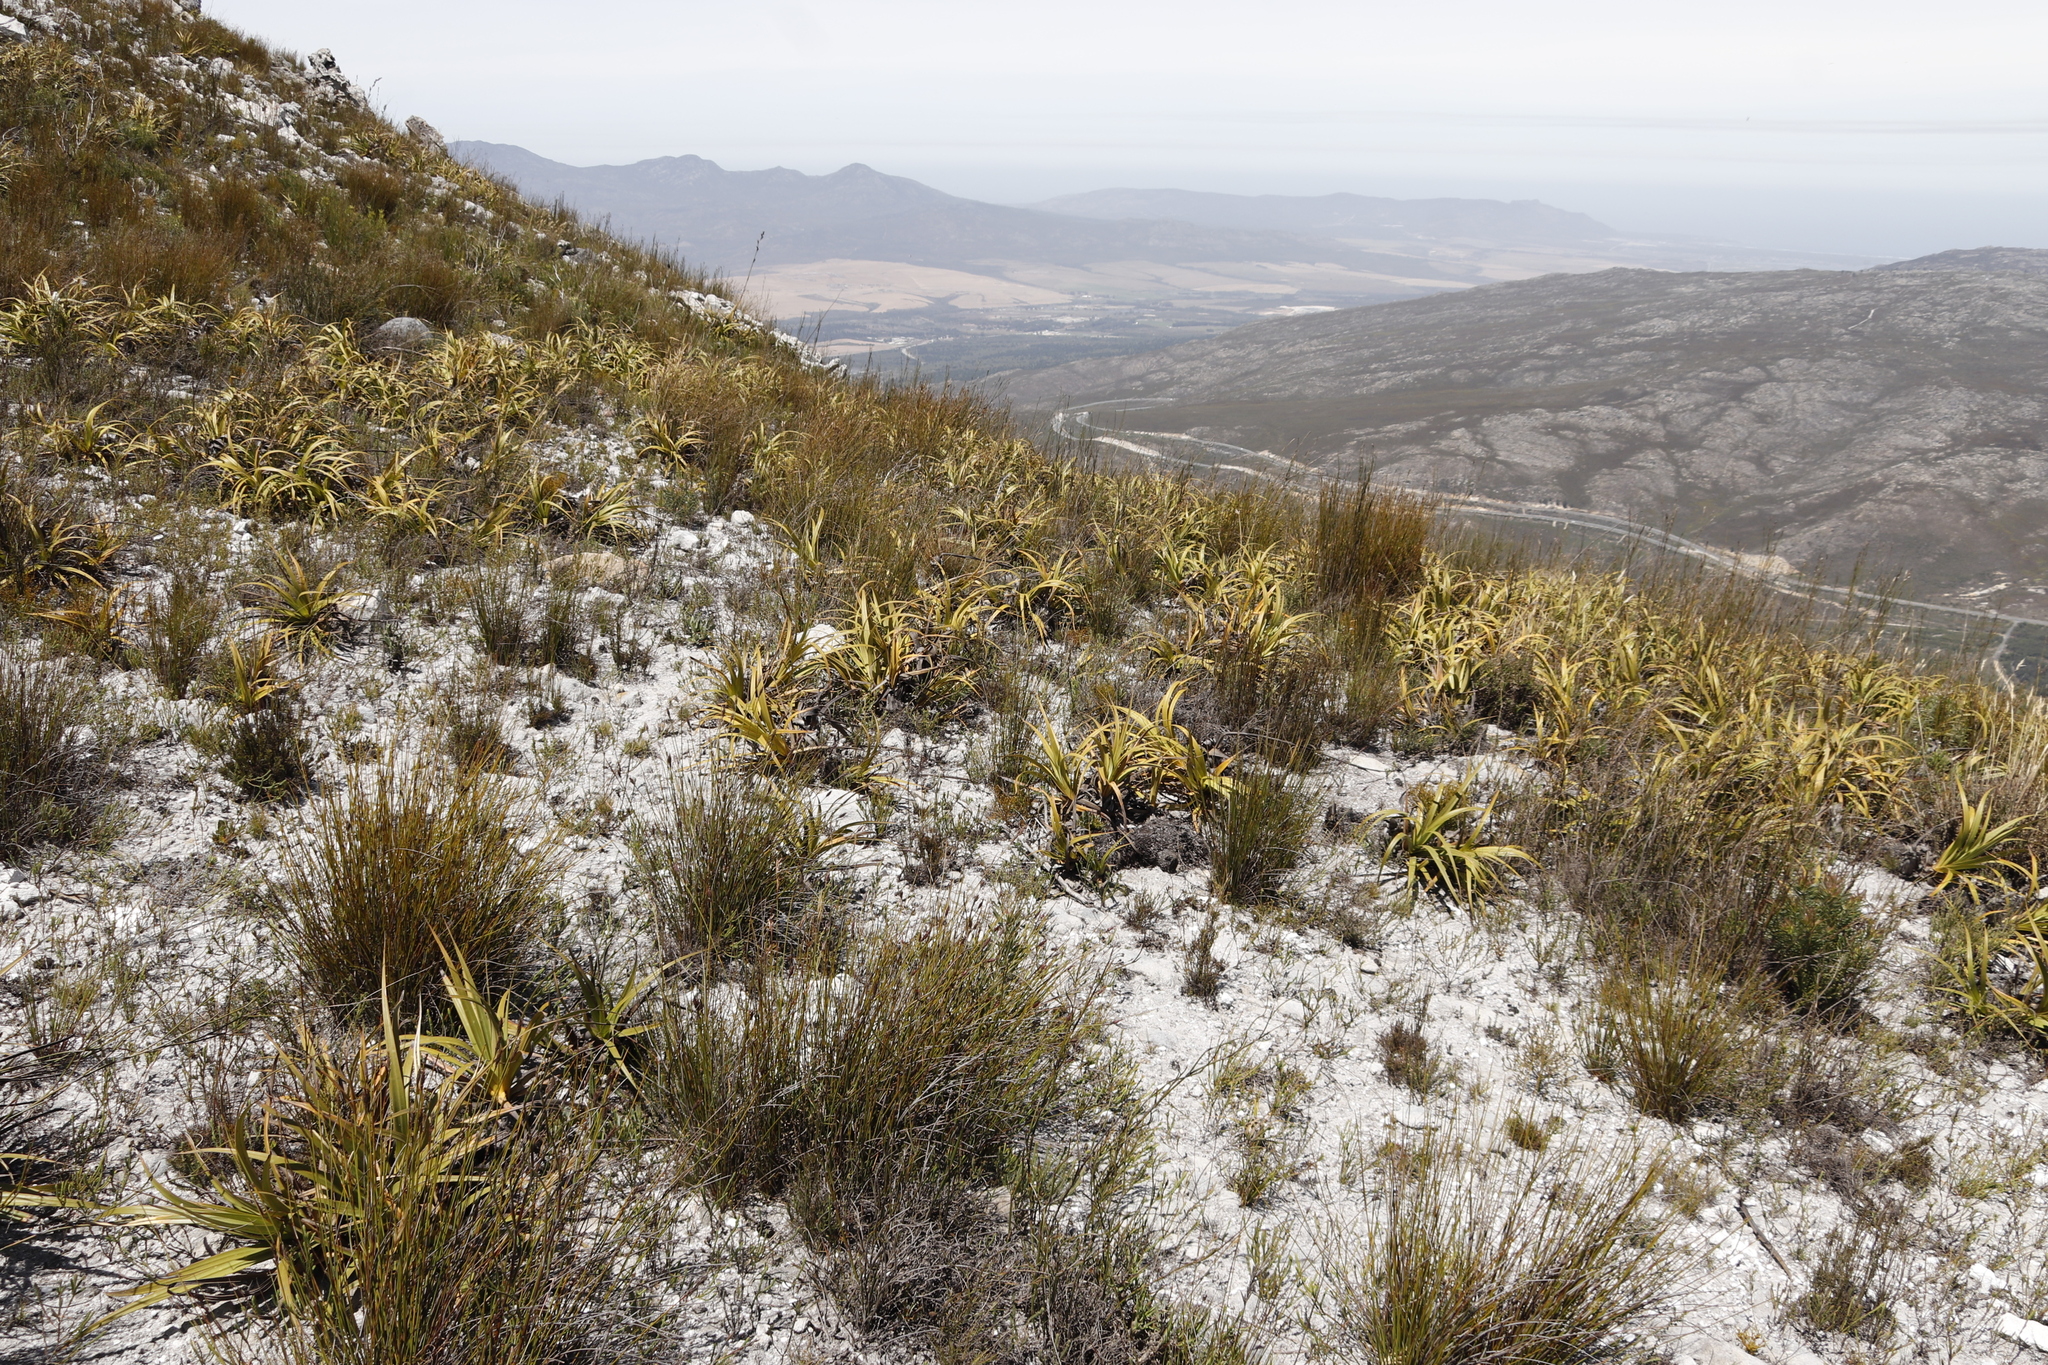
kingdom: Plantae
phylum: Tracheophyta
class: Liliopsida
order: Poales
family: Cyperaceae
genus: Tetraria
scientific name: Tetraria thermalis
